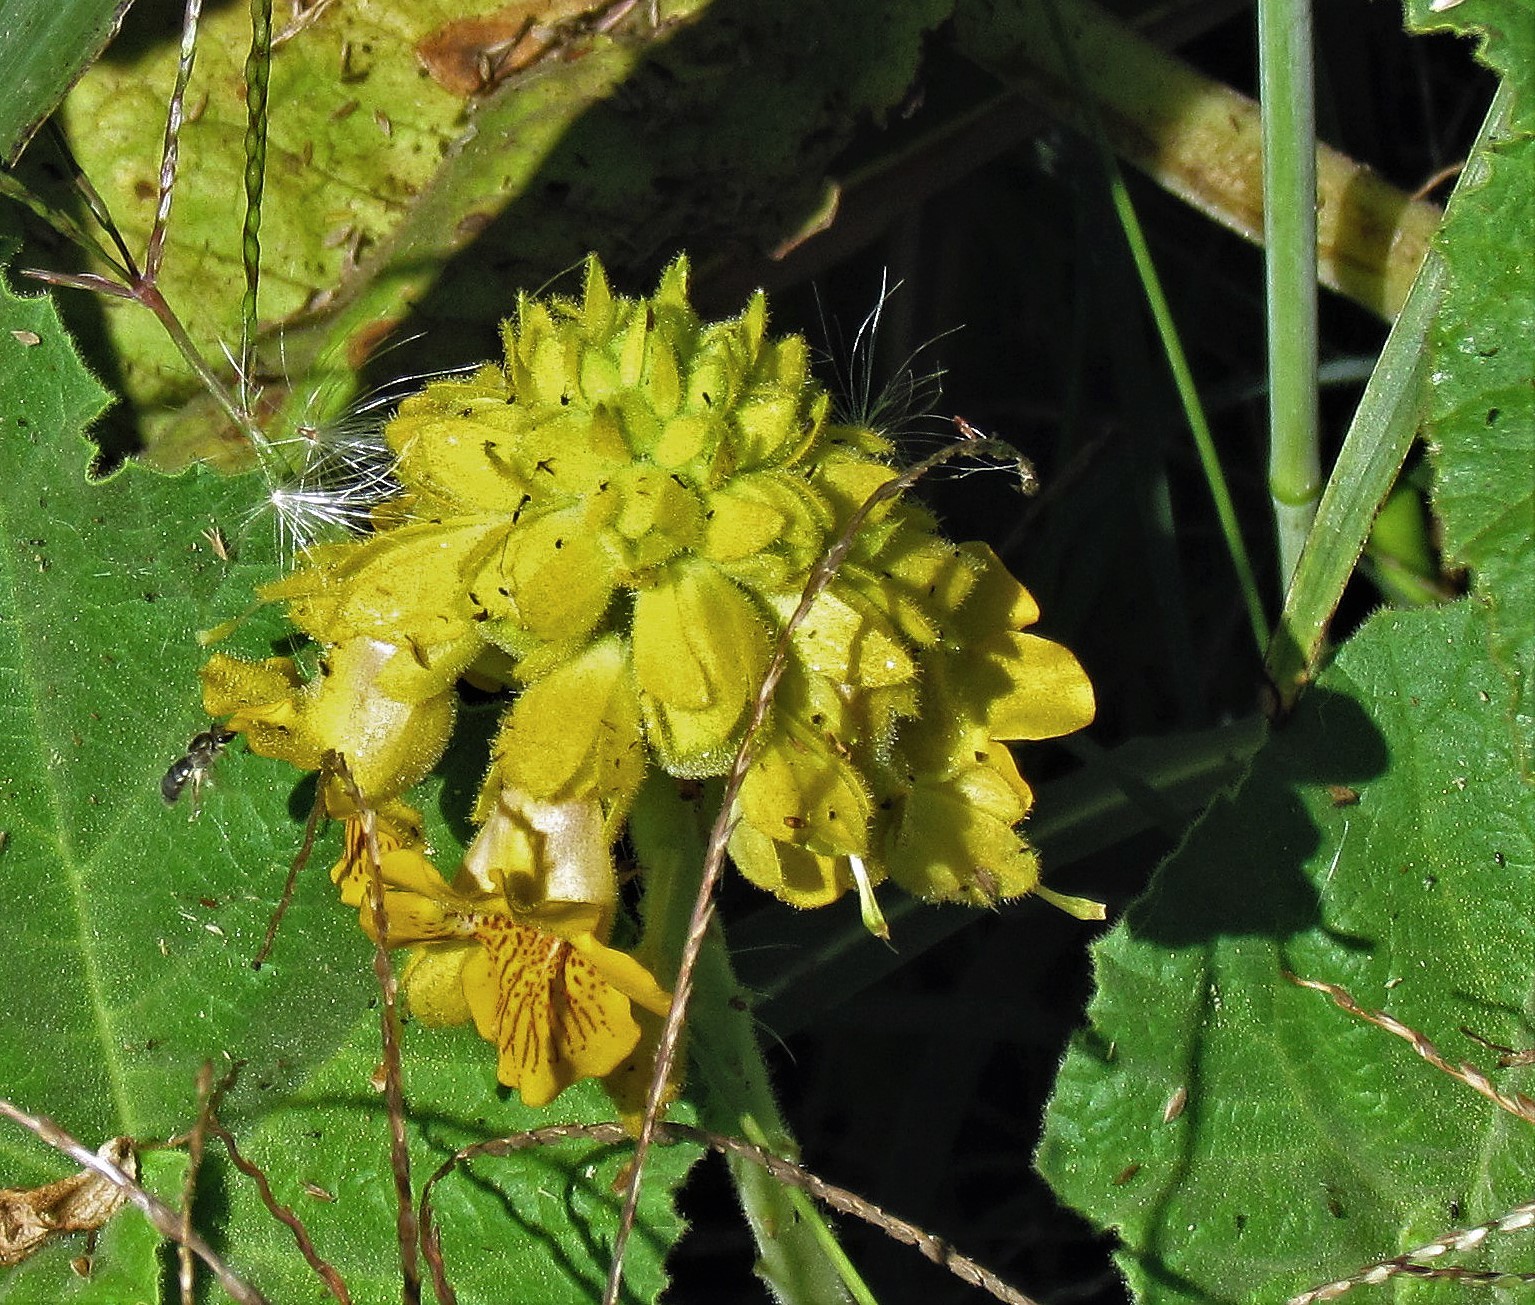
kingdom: Plantae
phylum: Tracheophyta
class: Magnoliopsida
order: Lamiales
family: Martyniaceae
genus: Ibicella
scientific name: Ibicella lutea
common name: Yellow unicorn-plant
